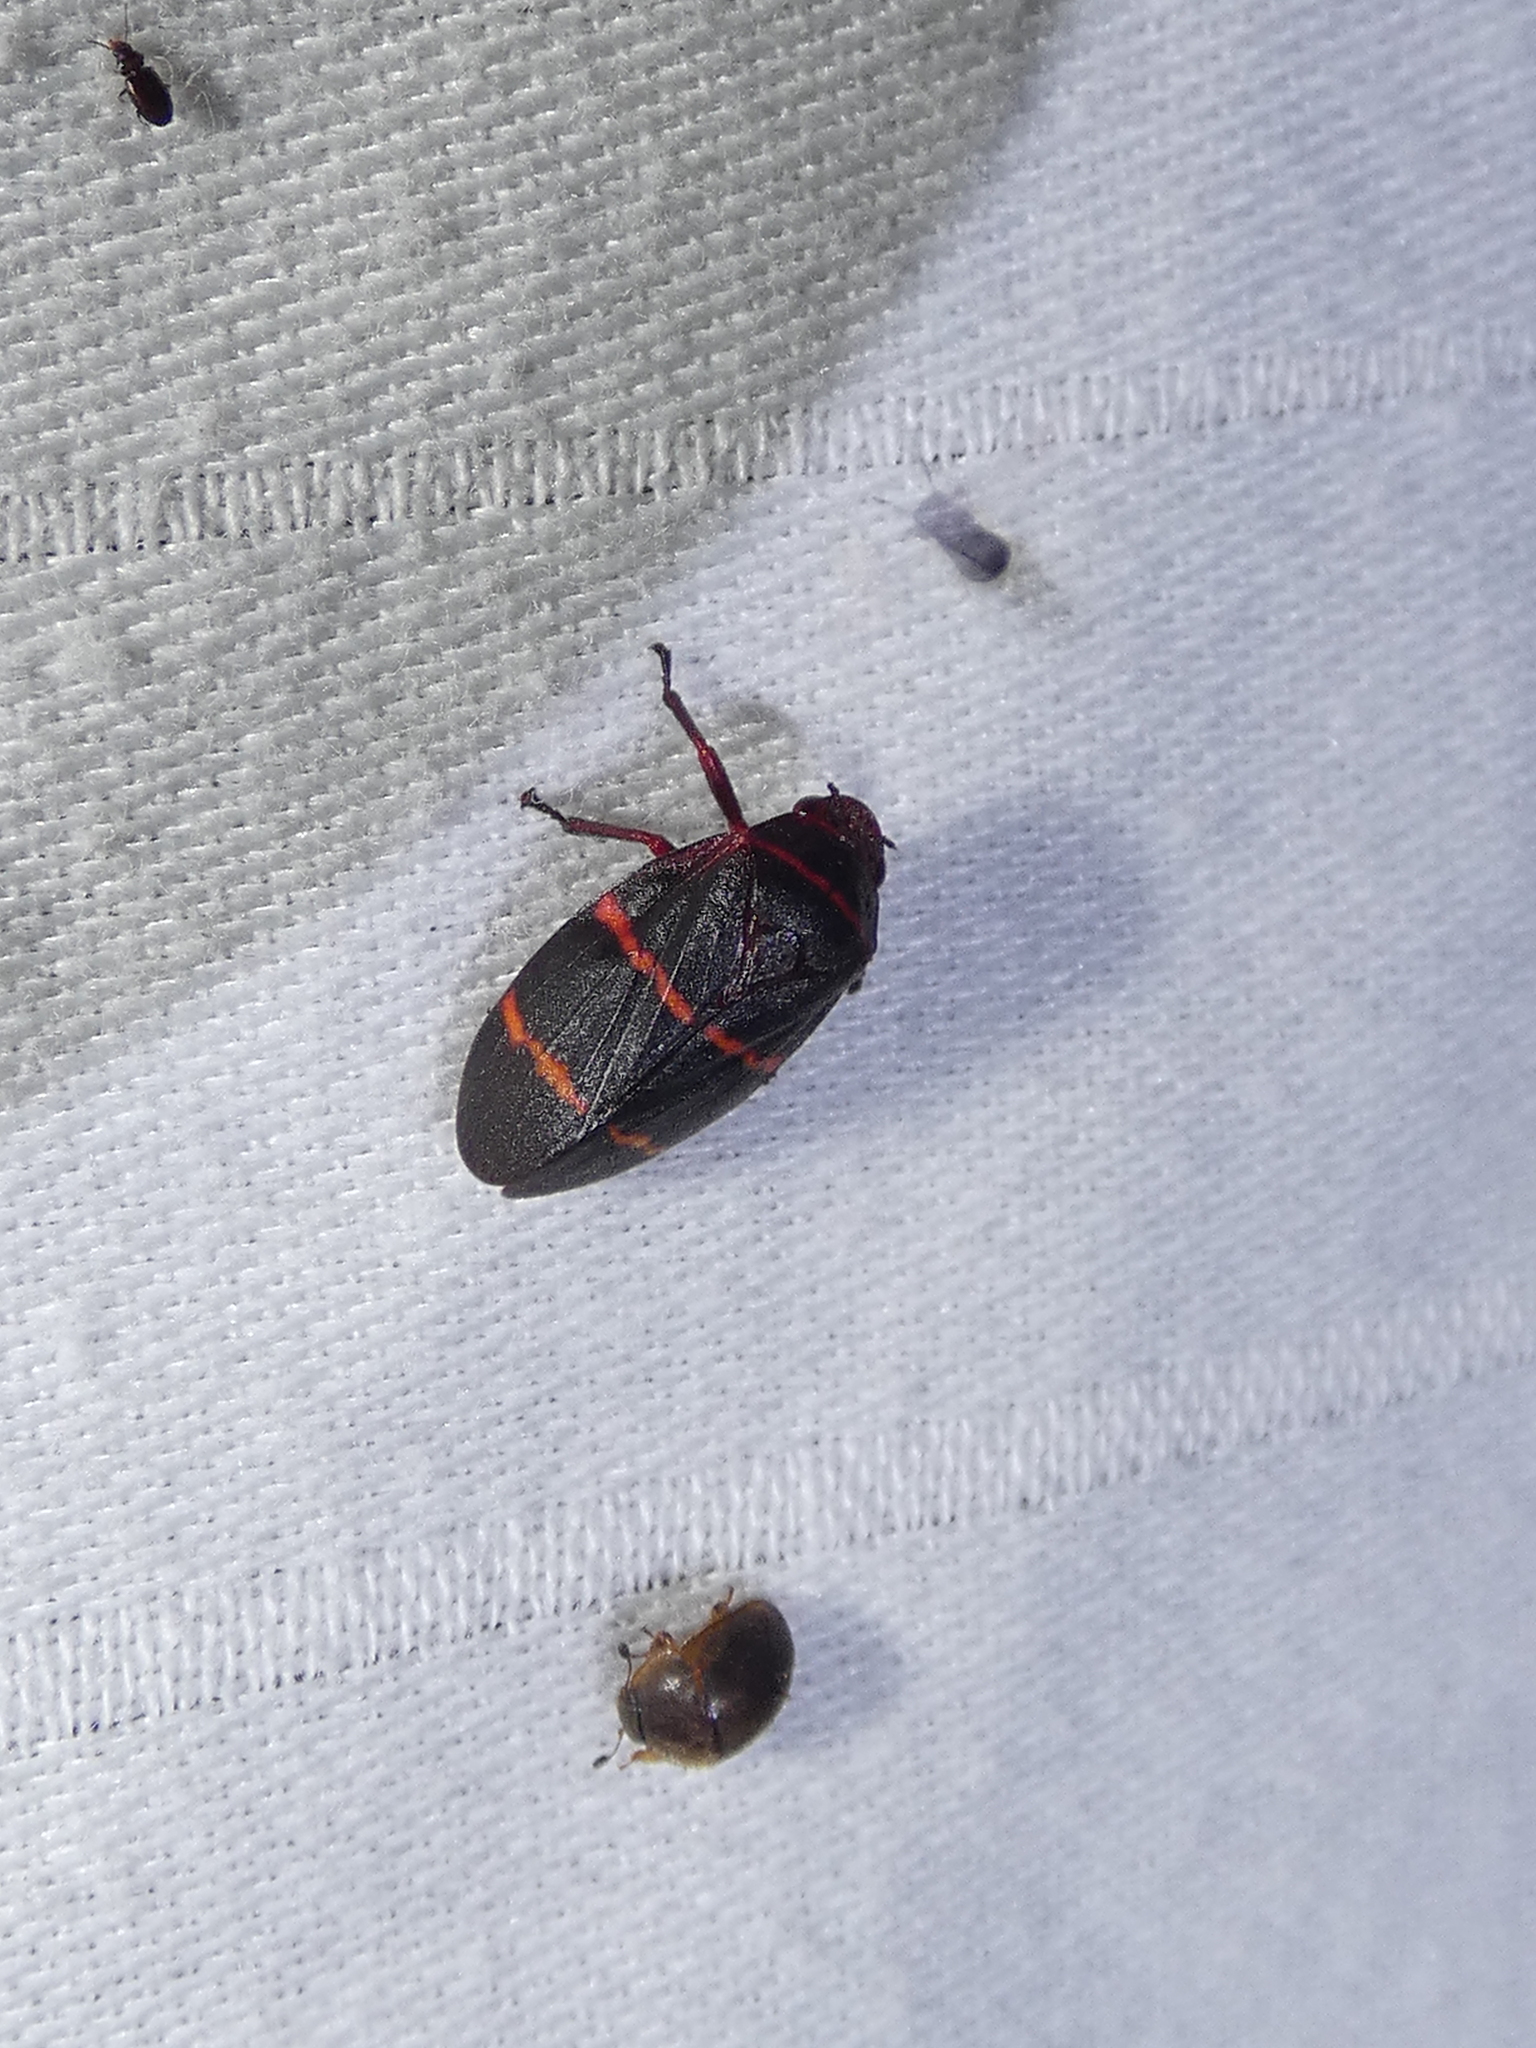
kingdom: Animalia
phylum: Arthropoda
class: Insecta
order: Hemiptera
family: Cercopidae
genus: Prosapia
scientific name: Prosapia bicincta
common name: Twolined spittlebug
